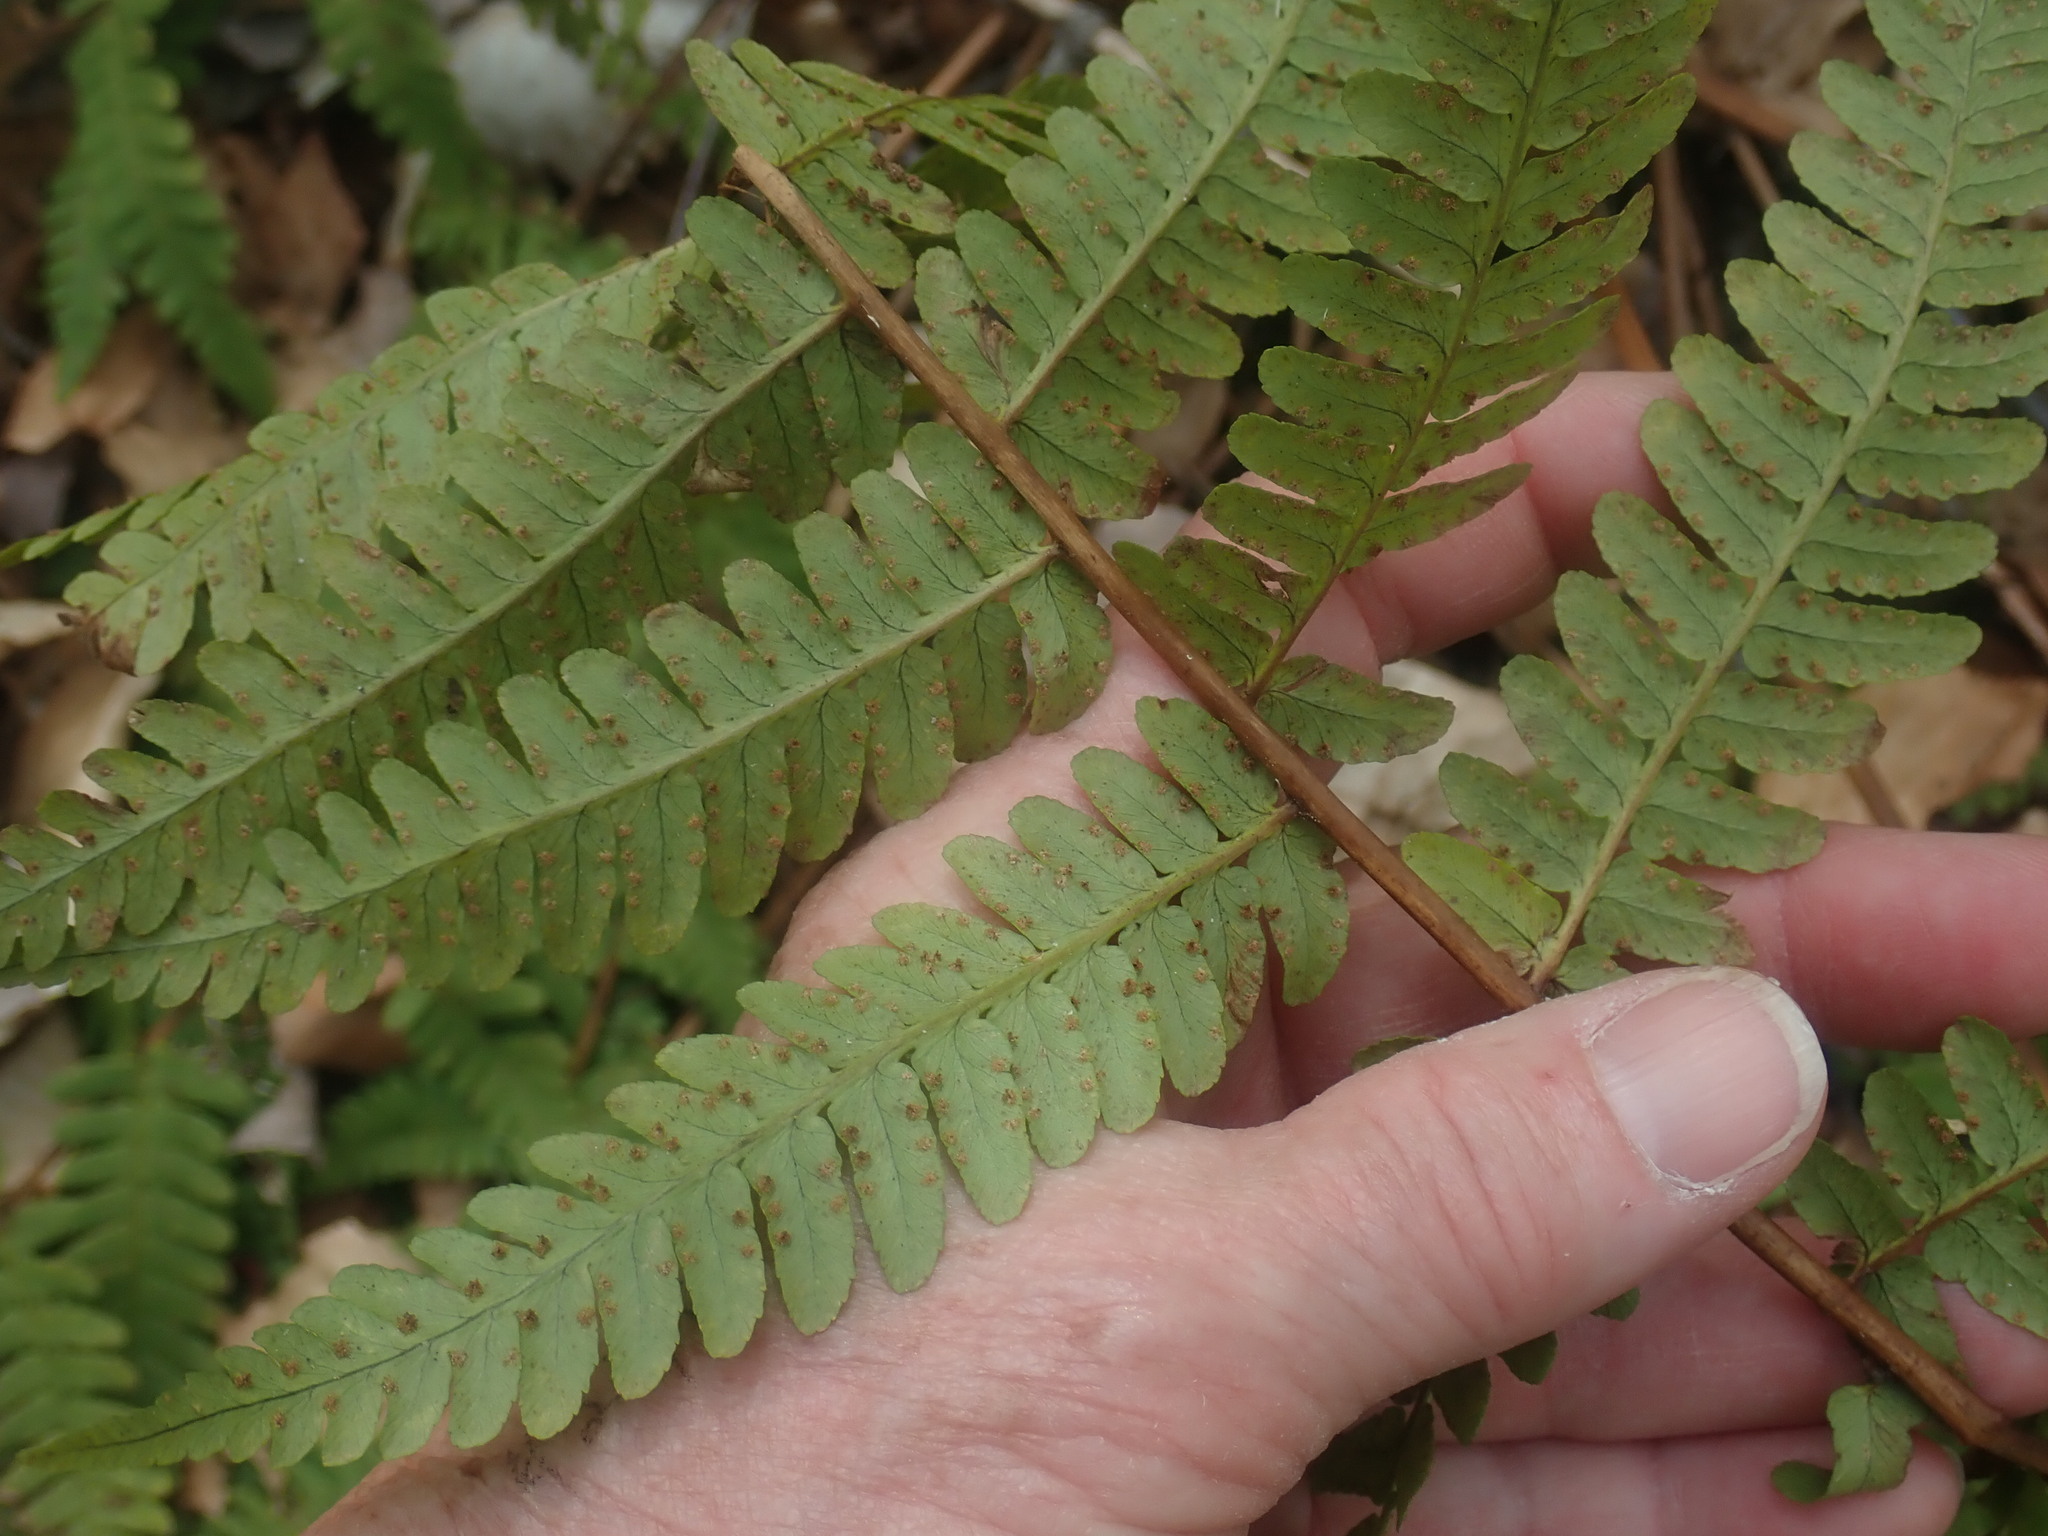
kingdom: Plantae
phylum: Tracheophyta
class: Polypodiopsida
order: Polypodiales
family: Dryopteridaceae
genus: Dryopteris
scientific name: Dryopteris marginalis
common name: Marginal wood fern
